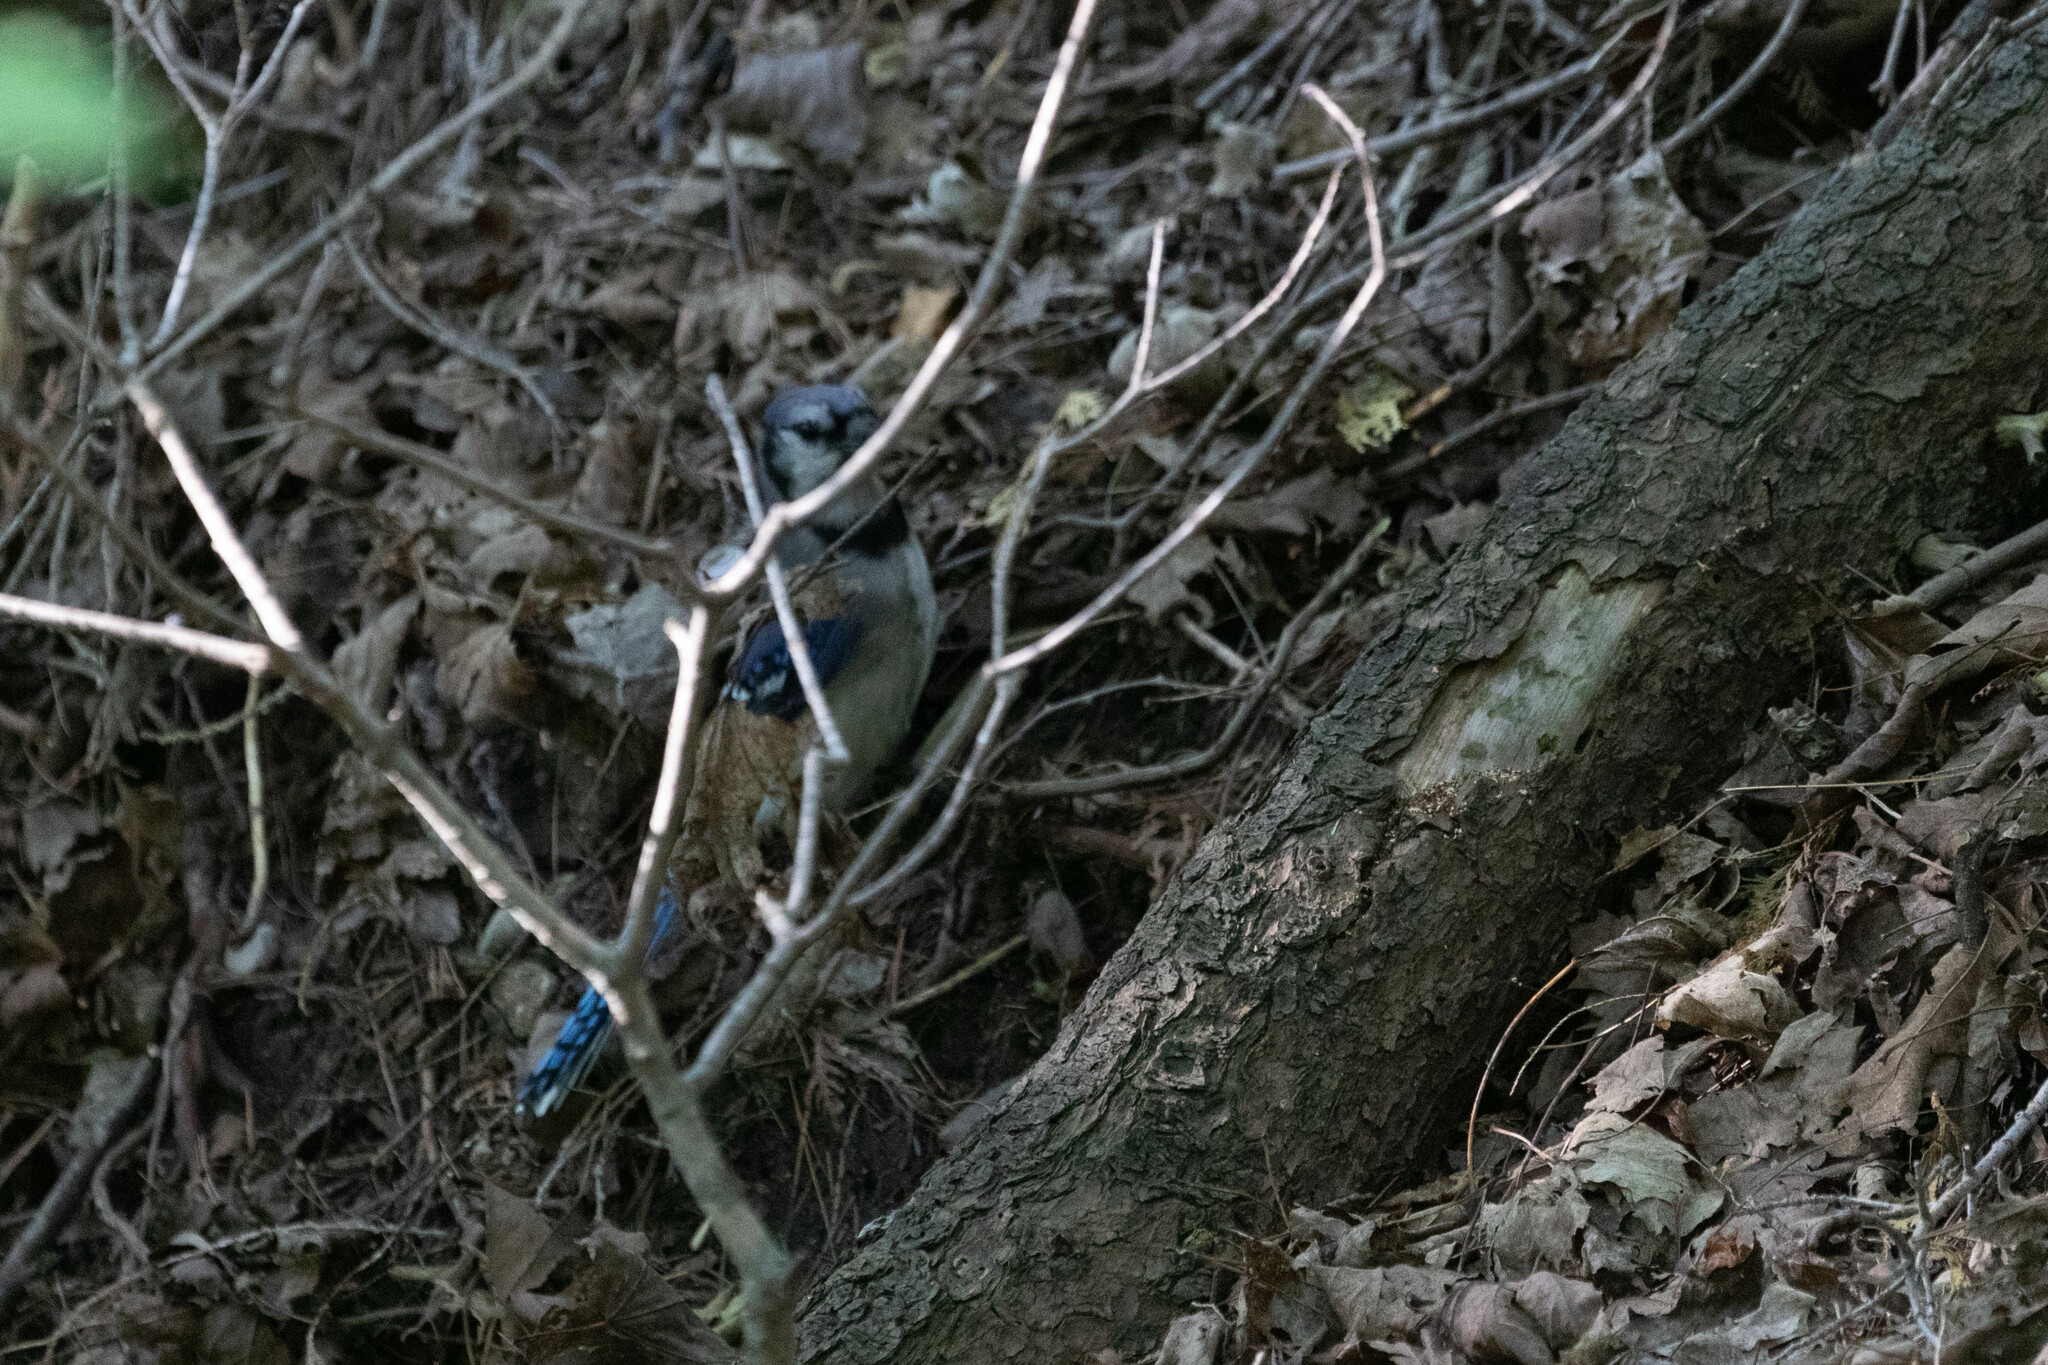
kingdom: Animalia
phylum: Chordata
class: Aves
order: Passeriformes
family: Corvidae
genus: Cyanocitta
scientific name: Cyanocitta cristata
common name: Blue jay
